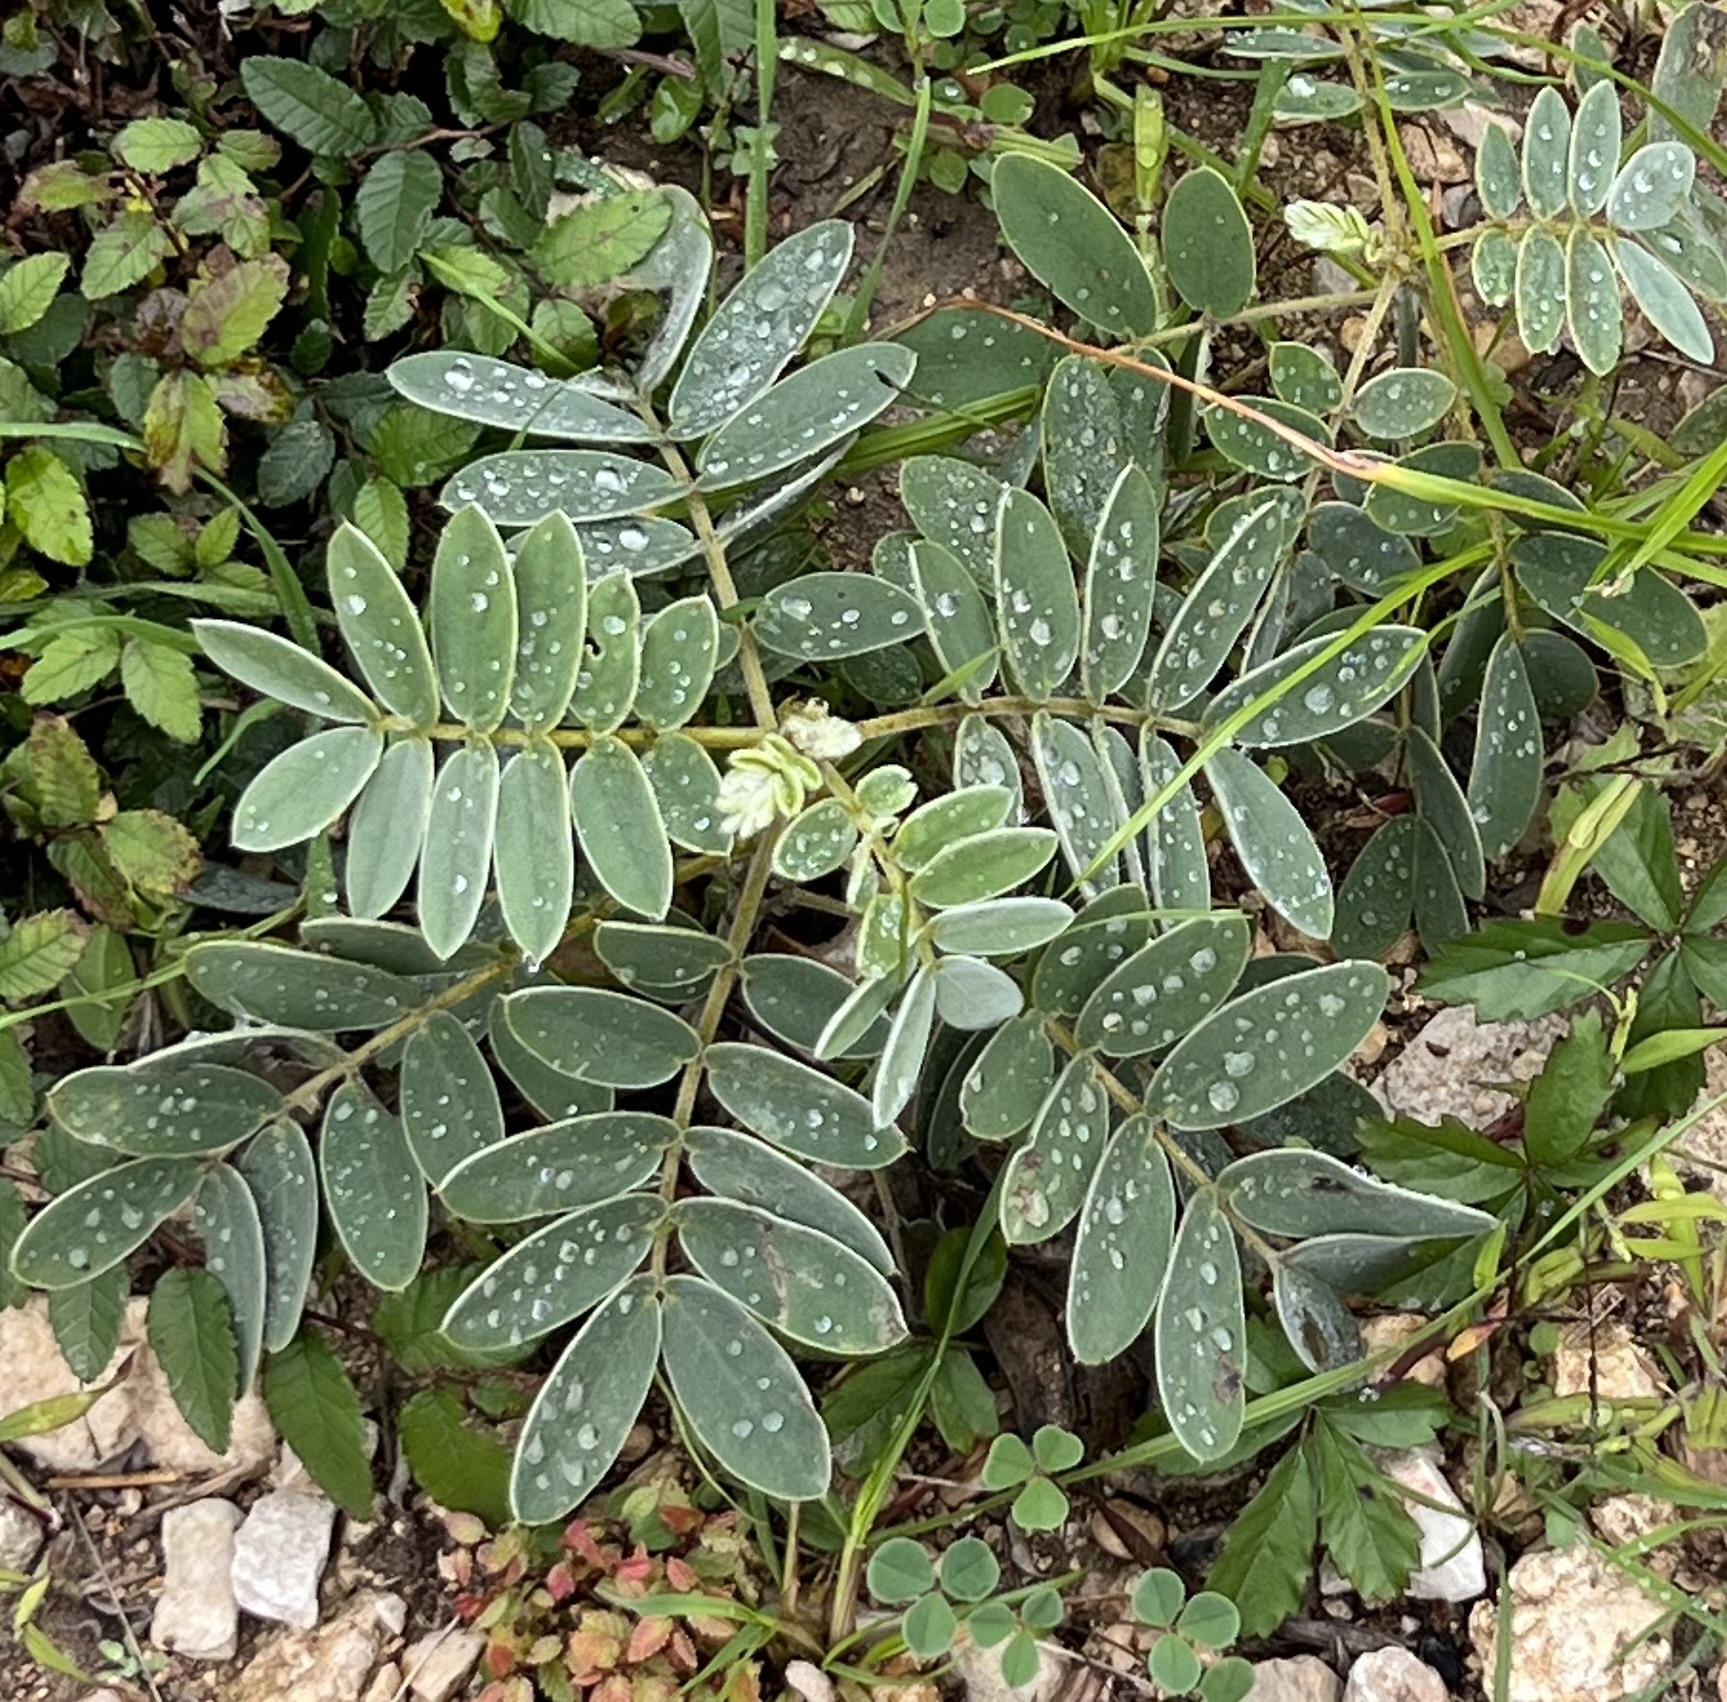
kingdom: Plantae
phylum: Tracheophyta
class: Magnoliopsida
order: Fabales
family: Fabaceae
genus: Senna
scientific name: Senna lindheimeriana
